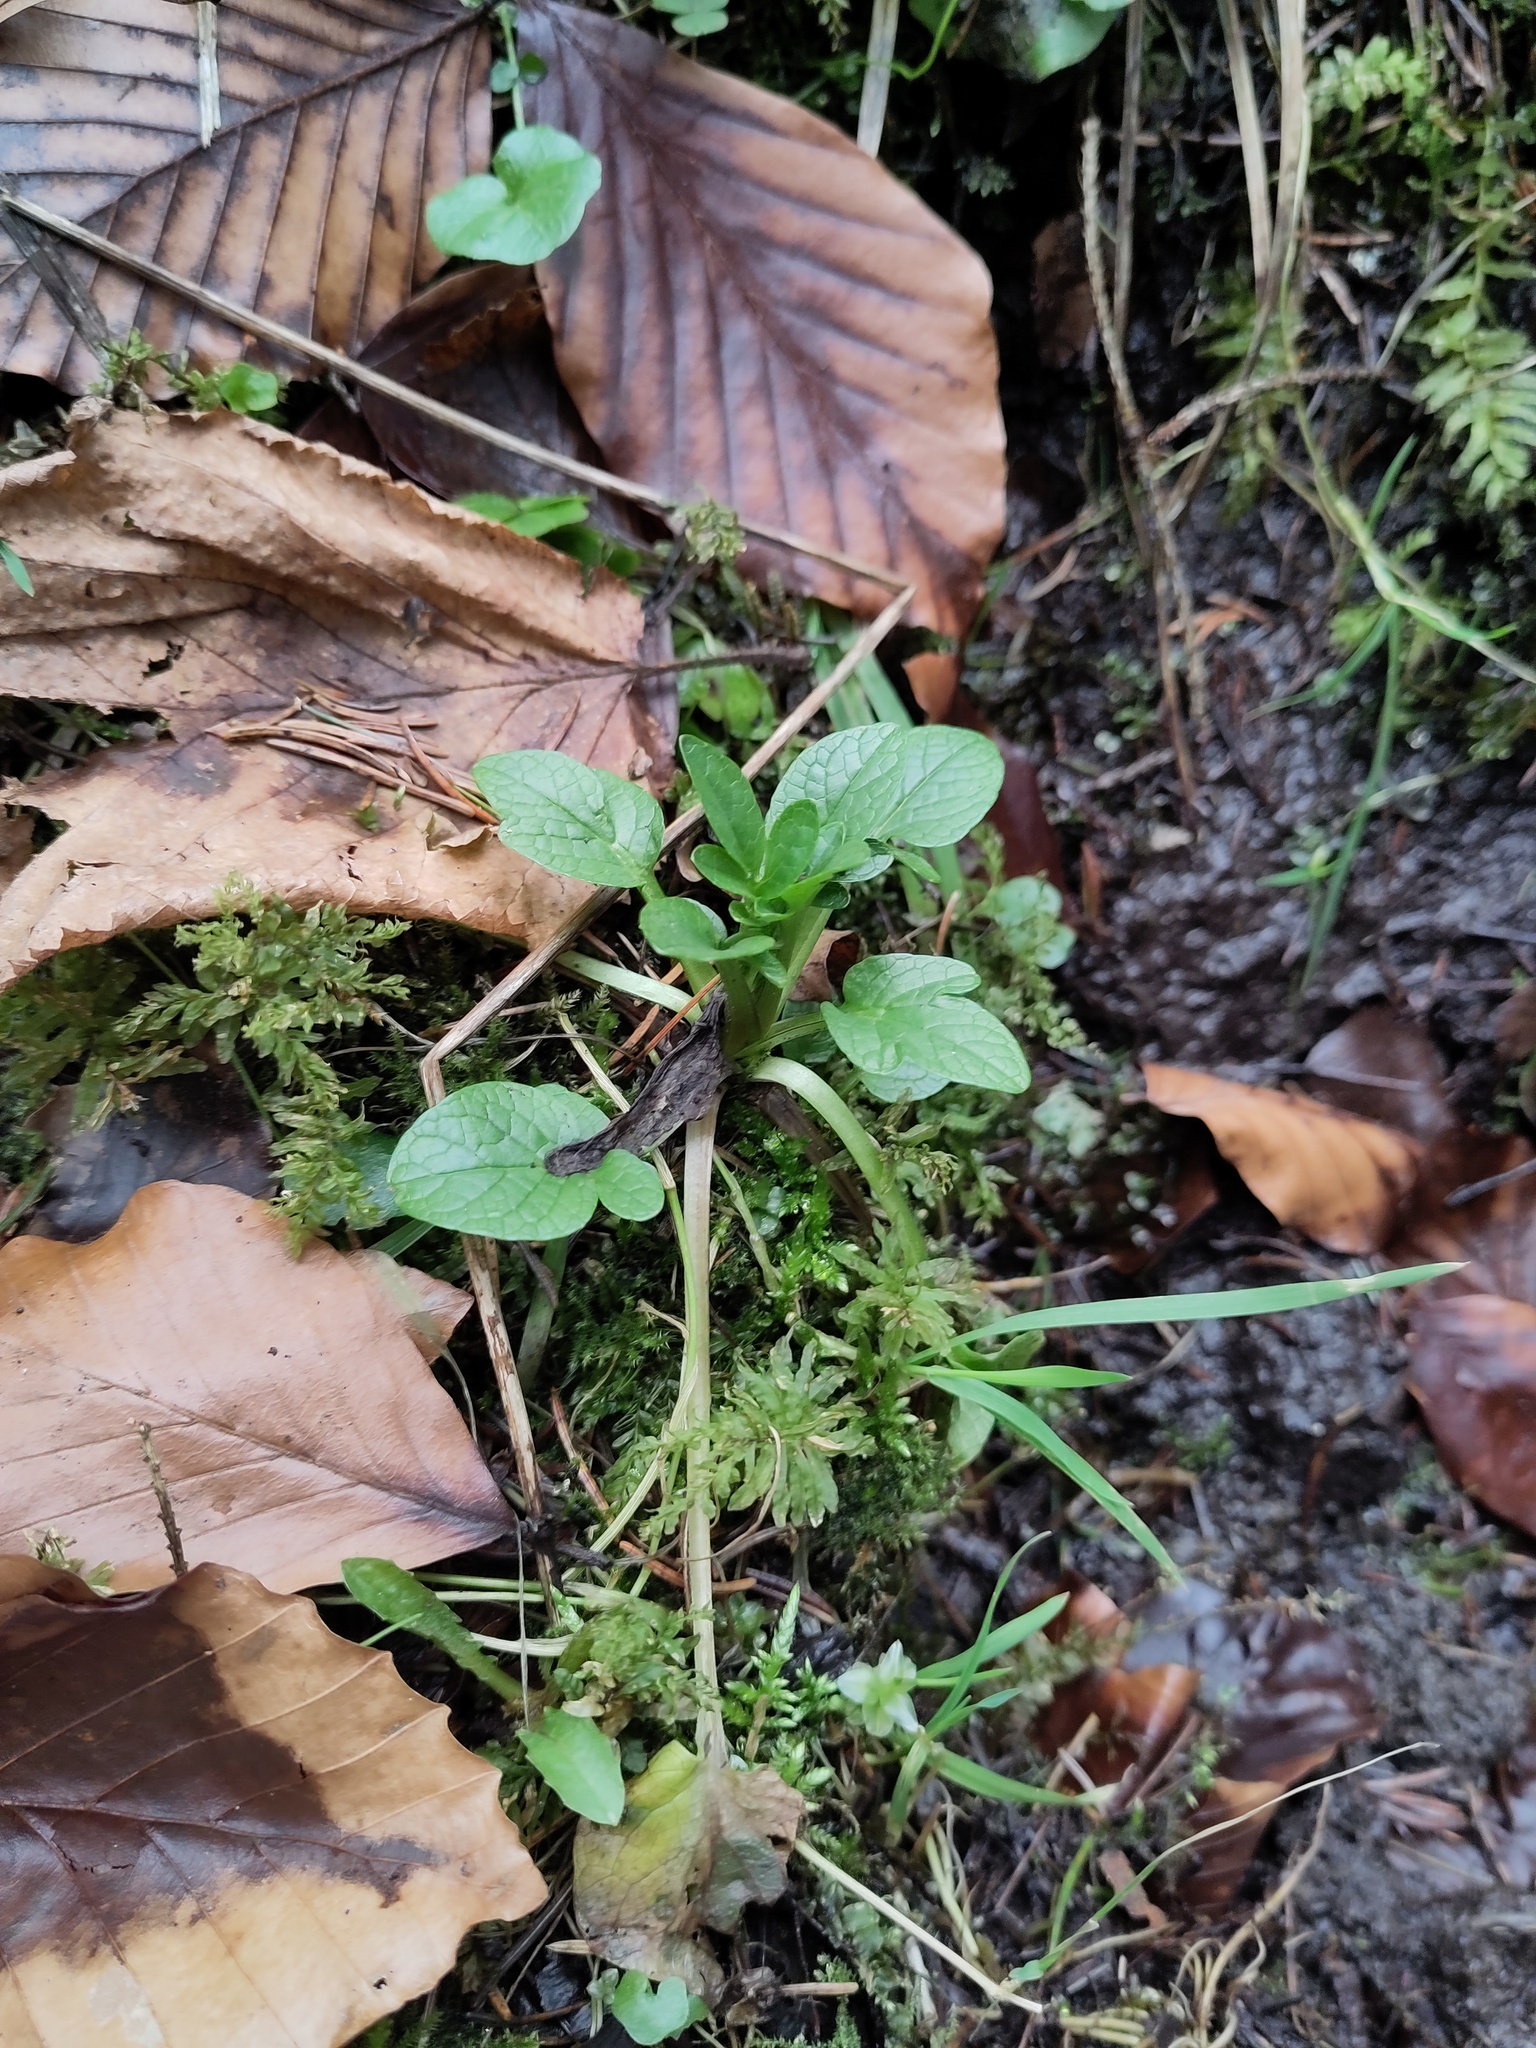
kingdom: Plantae
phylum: Tracheophyta
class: Magnoliopsida
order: Dipsacales
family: Caprifoliaceae
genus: Valeriana
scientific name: Valeriana dioica
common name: Marsh valerian
